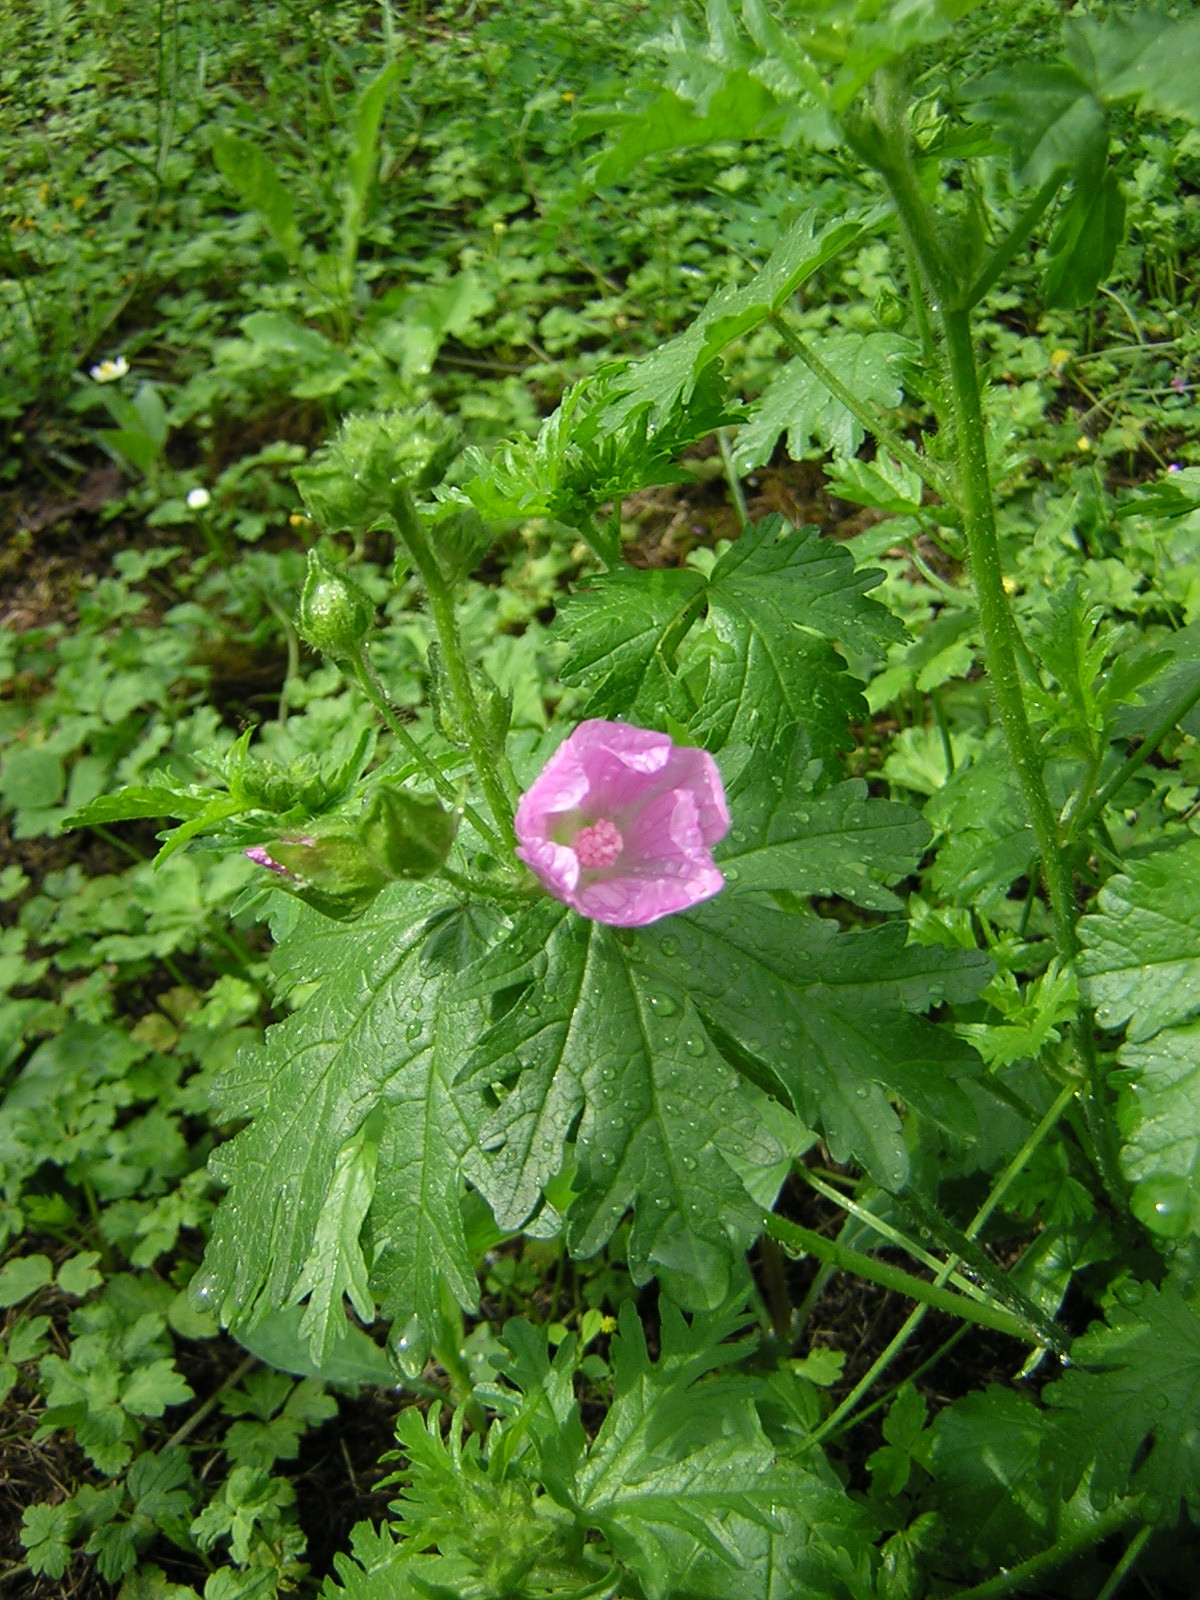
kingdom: Plantae
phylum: Tracheophyta
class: Magnoliopsida
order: Malvales
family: Malvaceae
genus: Malva
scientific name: Malva alcea
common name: Greater musk-mallow
